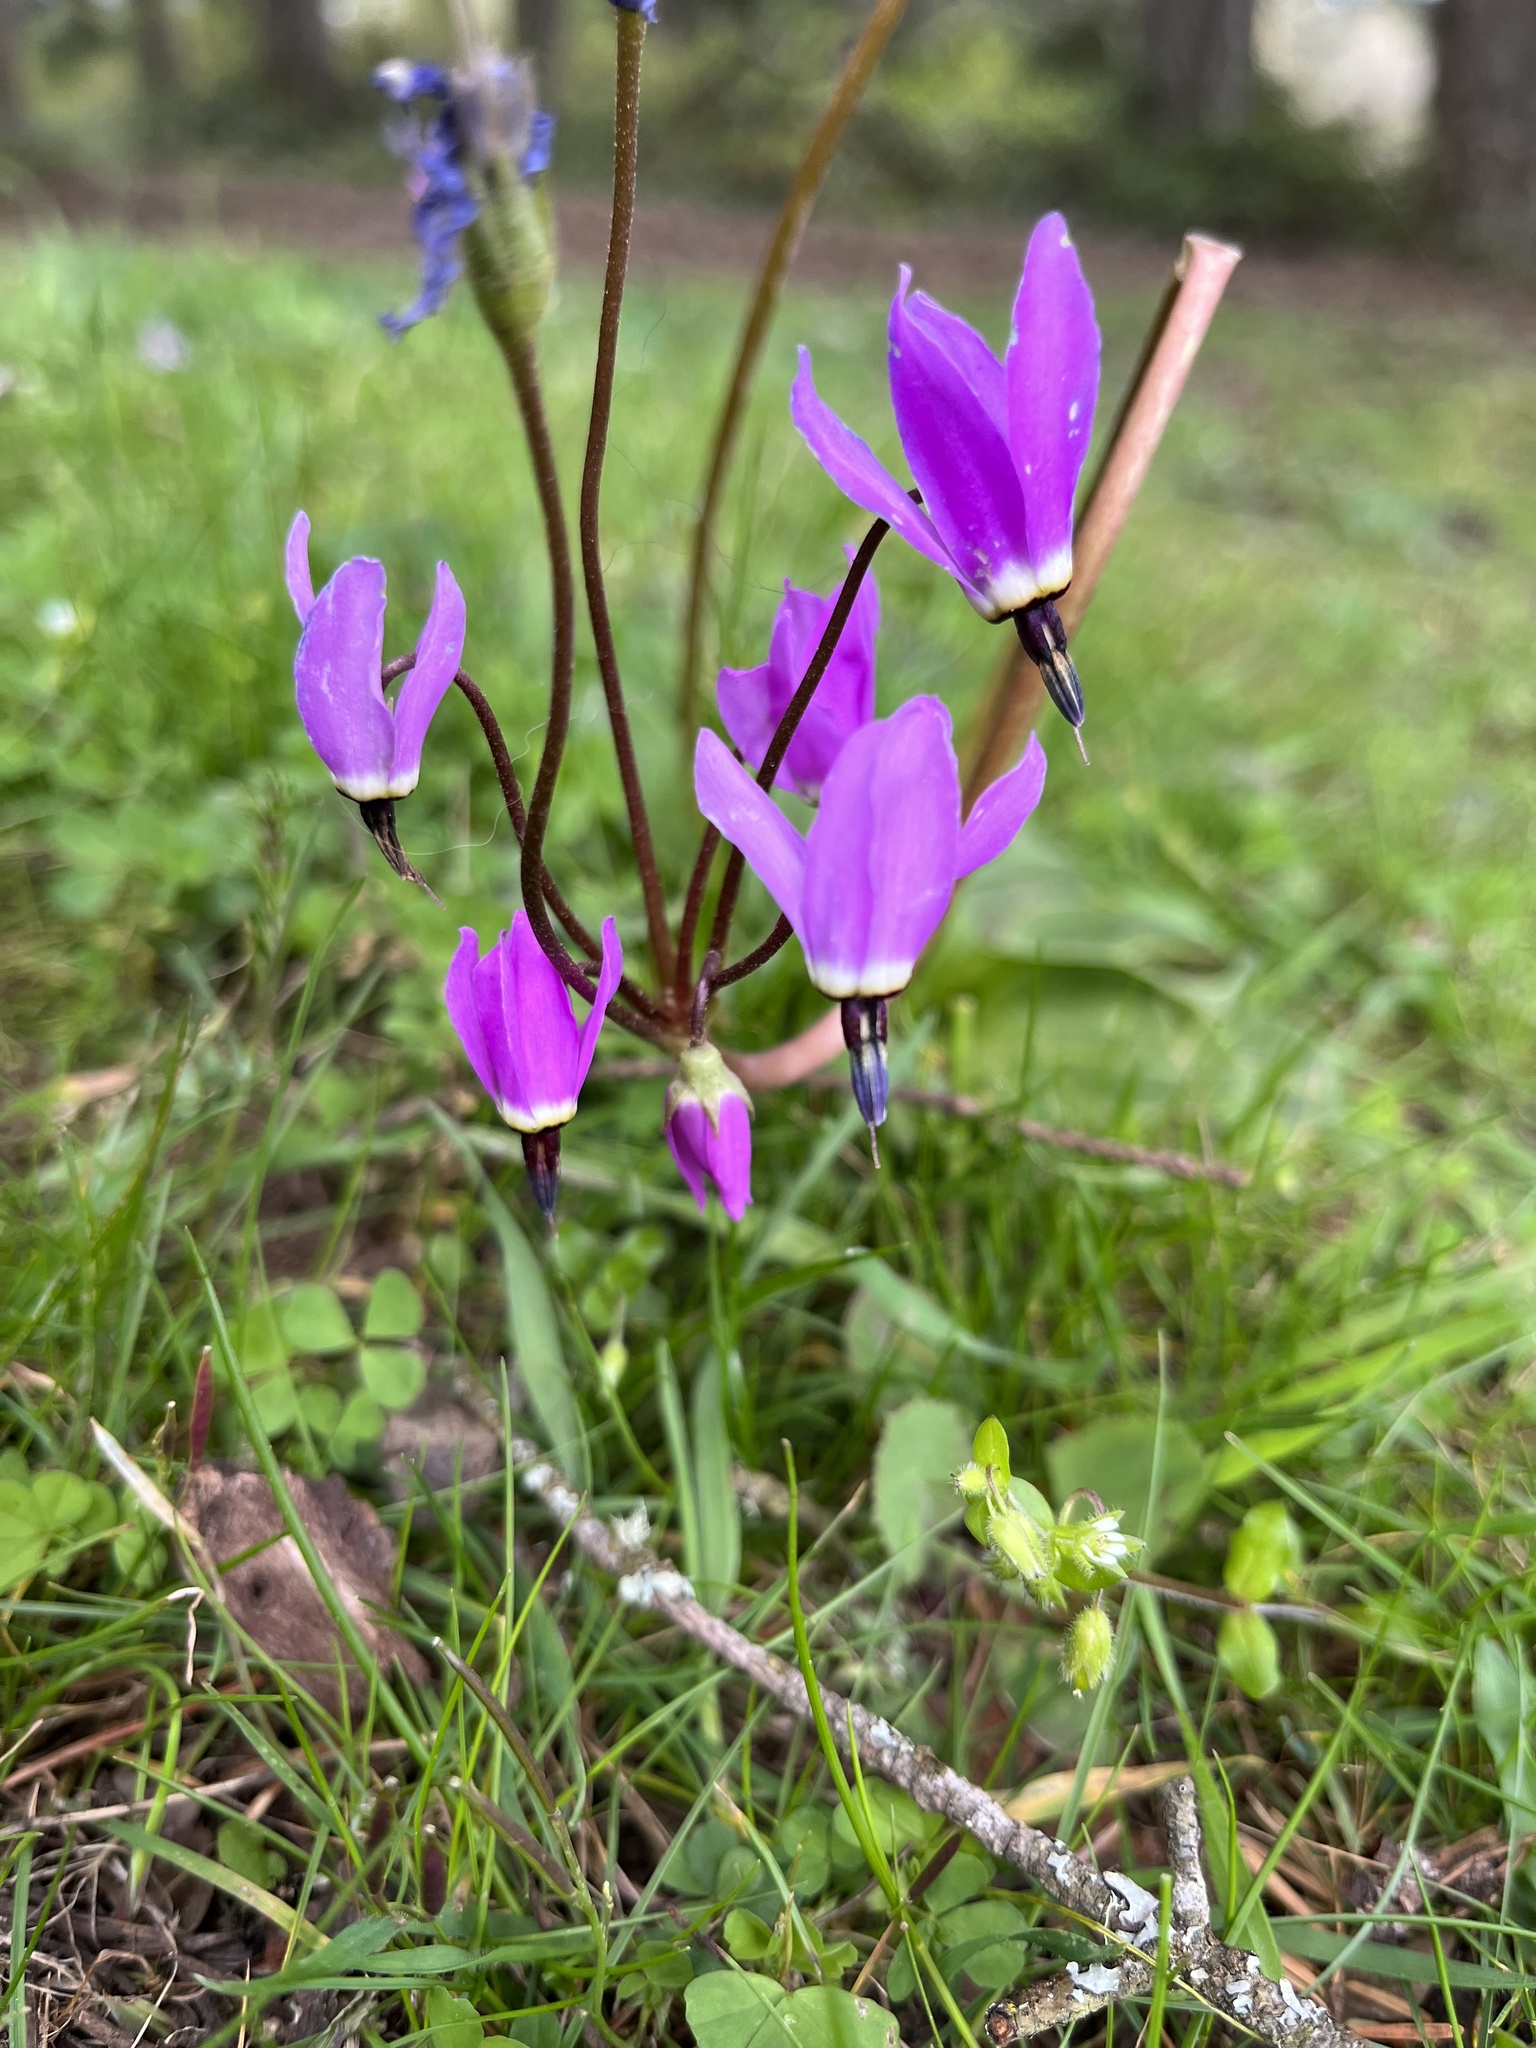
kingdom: Plantae
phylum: Tracheophyta
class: Magnoliopsida
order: Ericales
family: Primulaceae
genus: Dodecatheon
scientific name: Dodecatheon hendersonii
